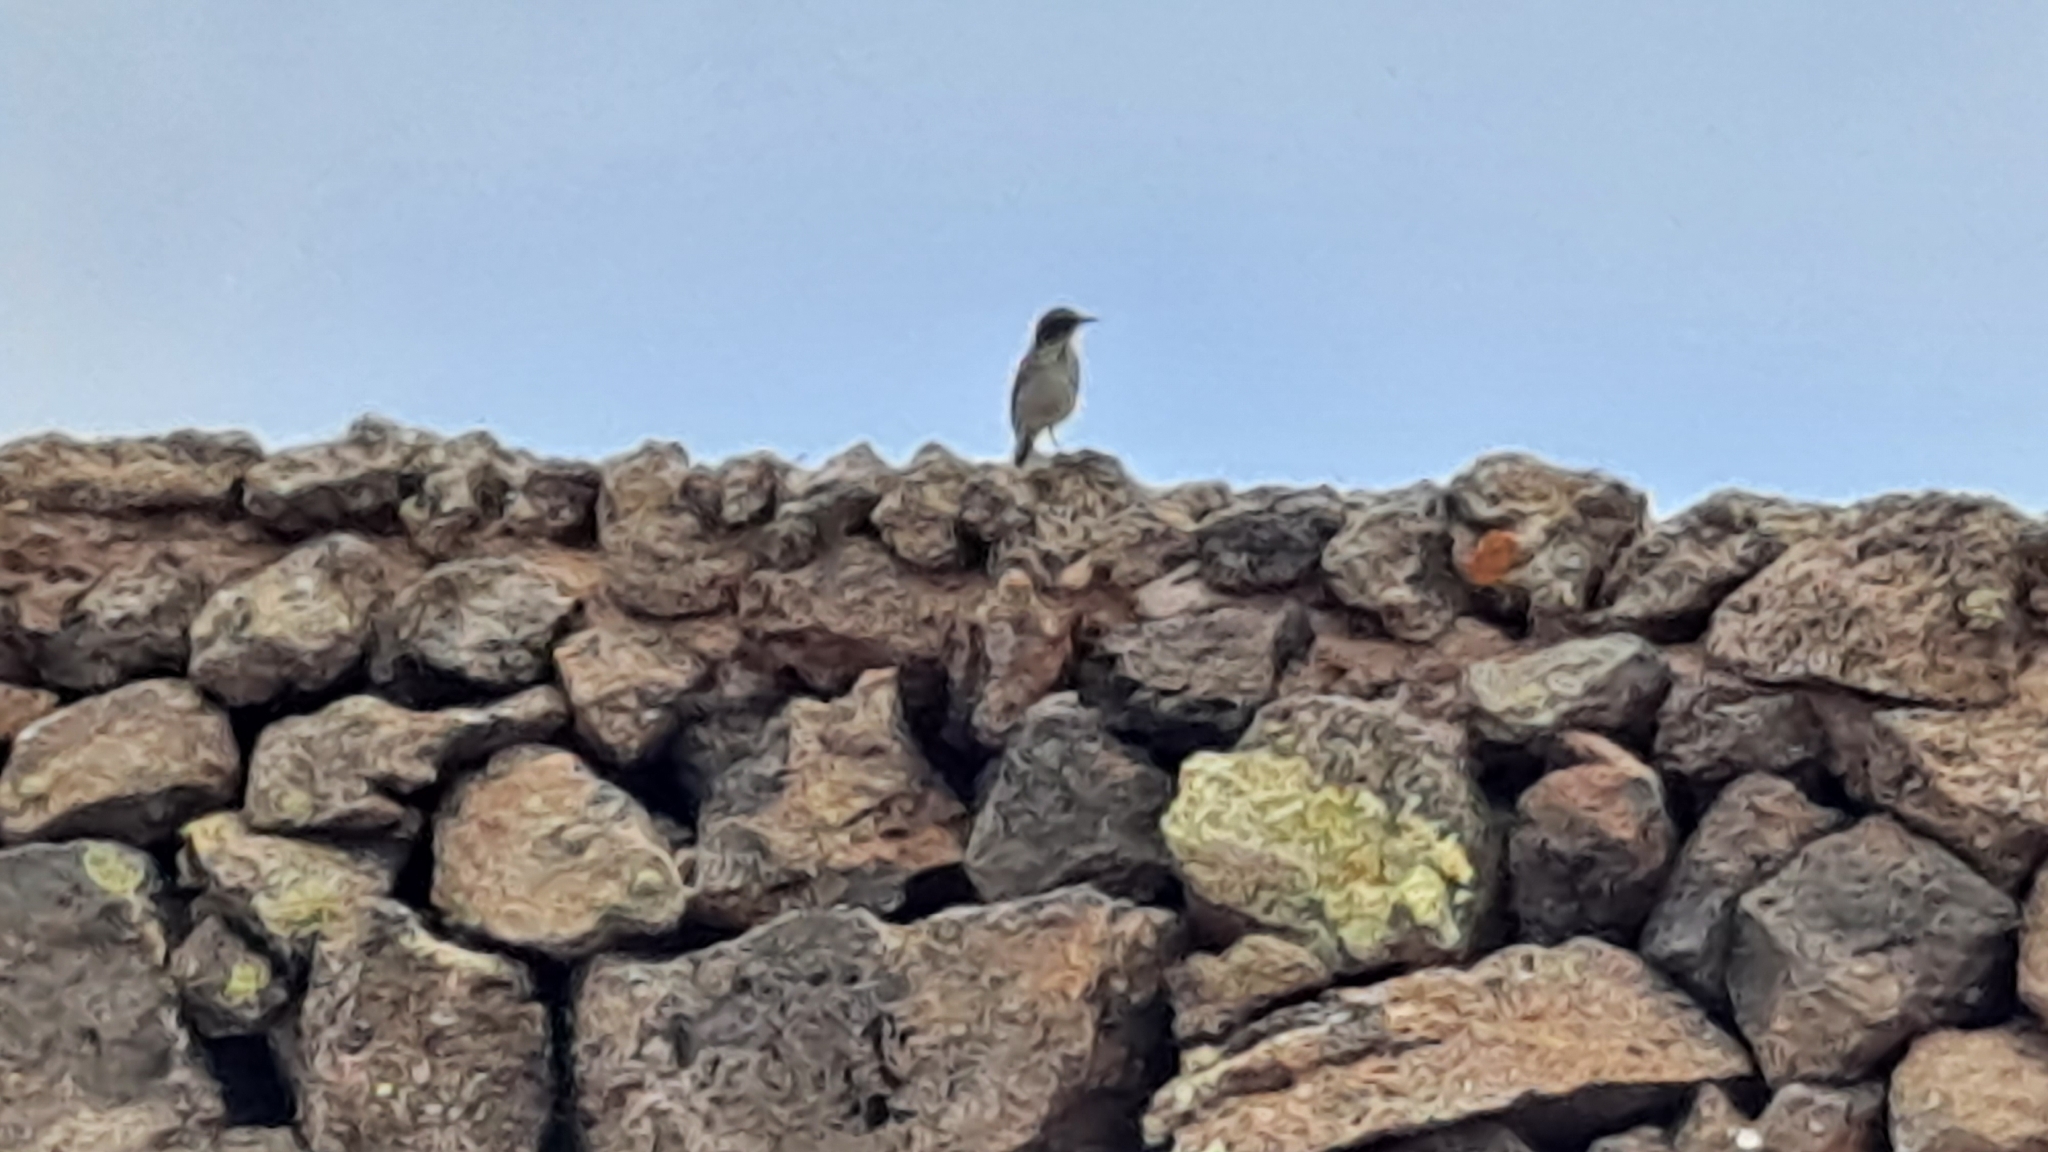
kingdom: Animalia
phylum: Chordata
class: Aves
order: Passeriformes
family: Motacillidae
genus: Anthus
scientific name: Anthus berthelotii
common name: Berthelot's pipit
